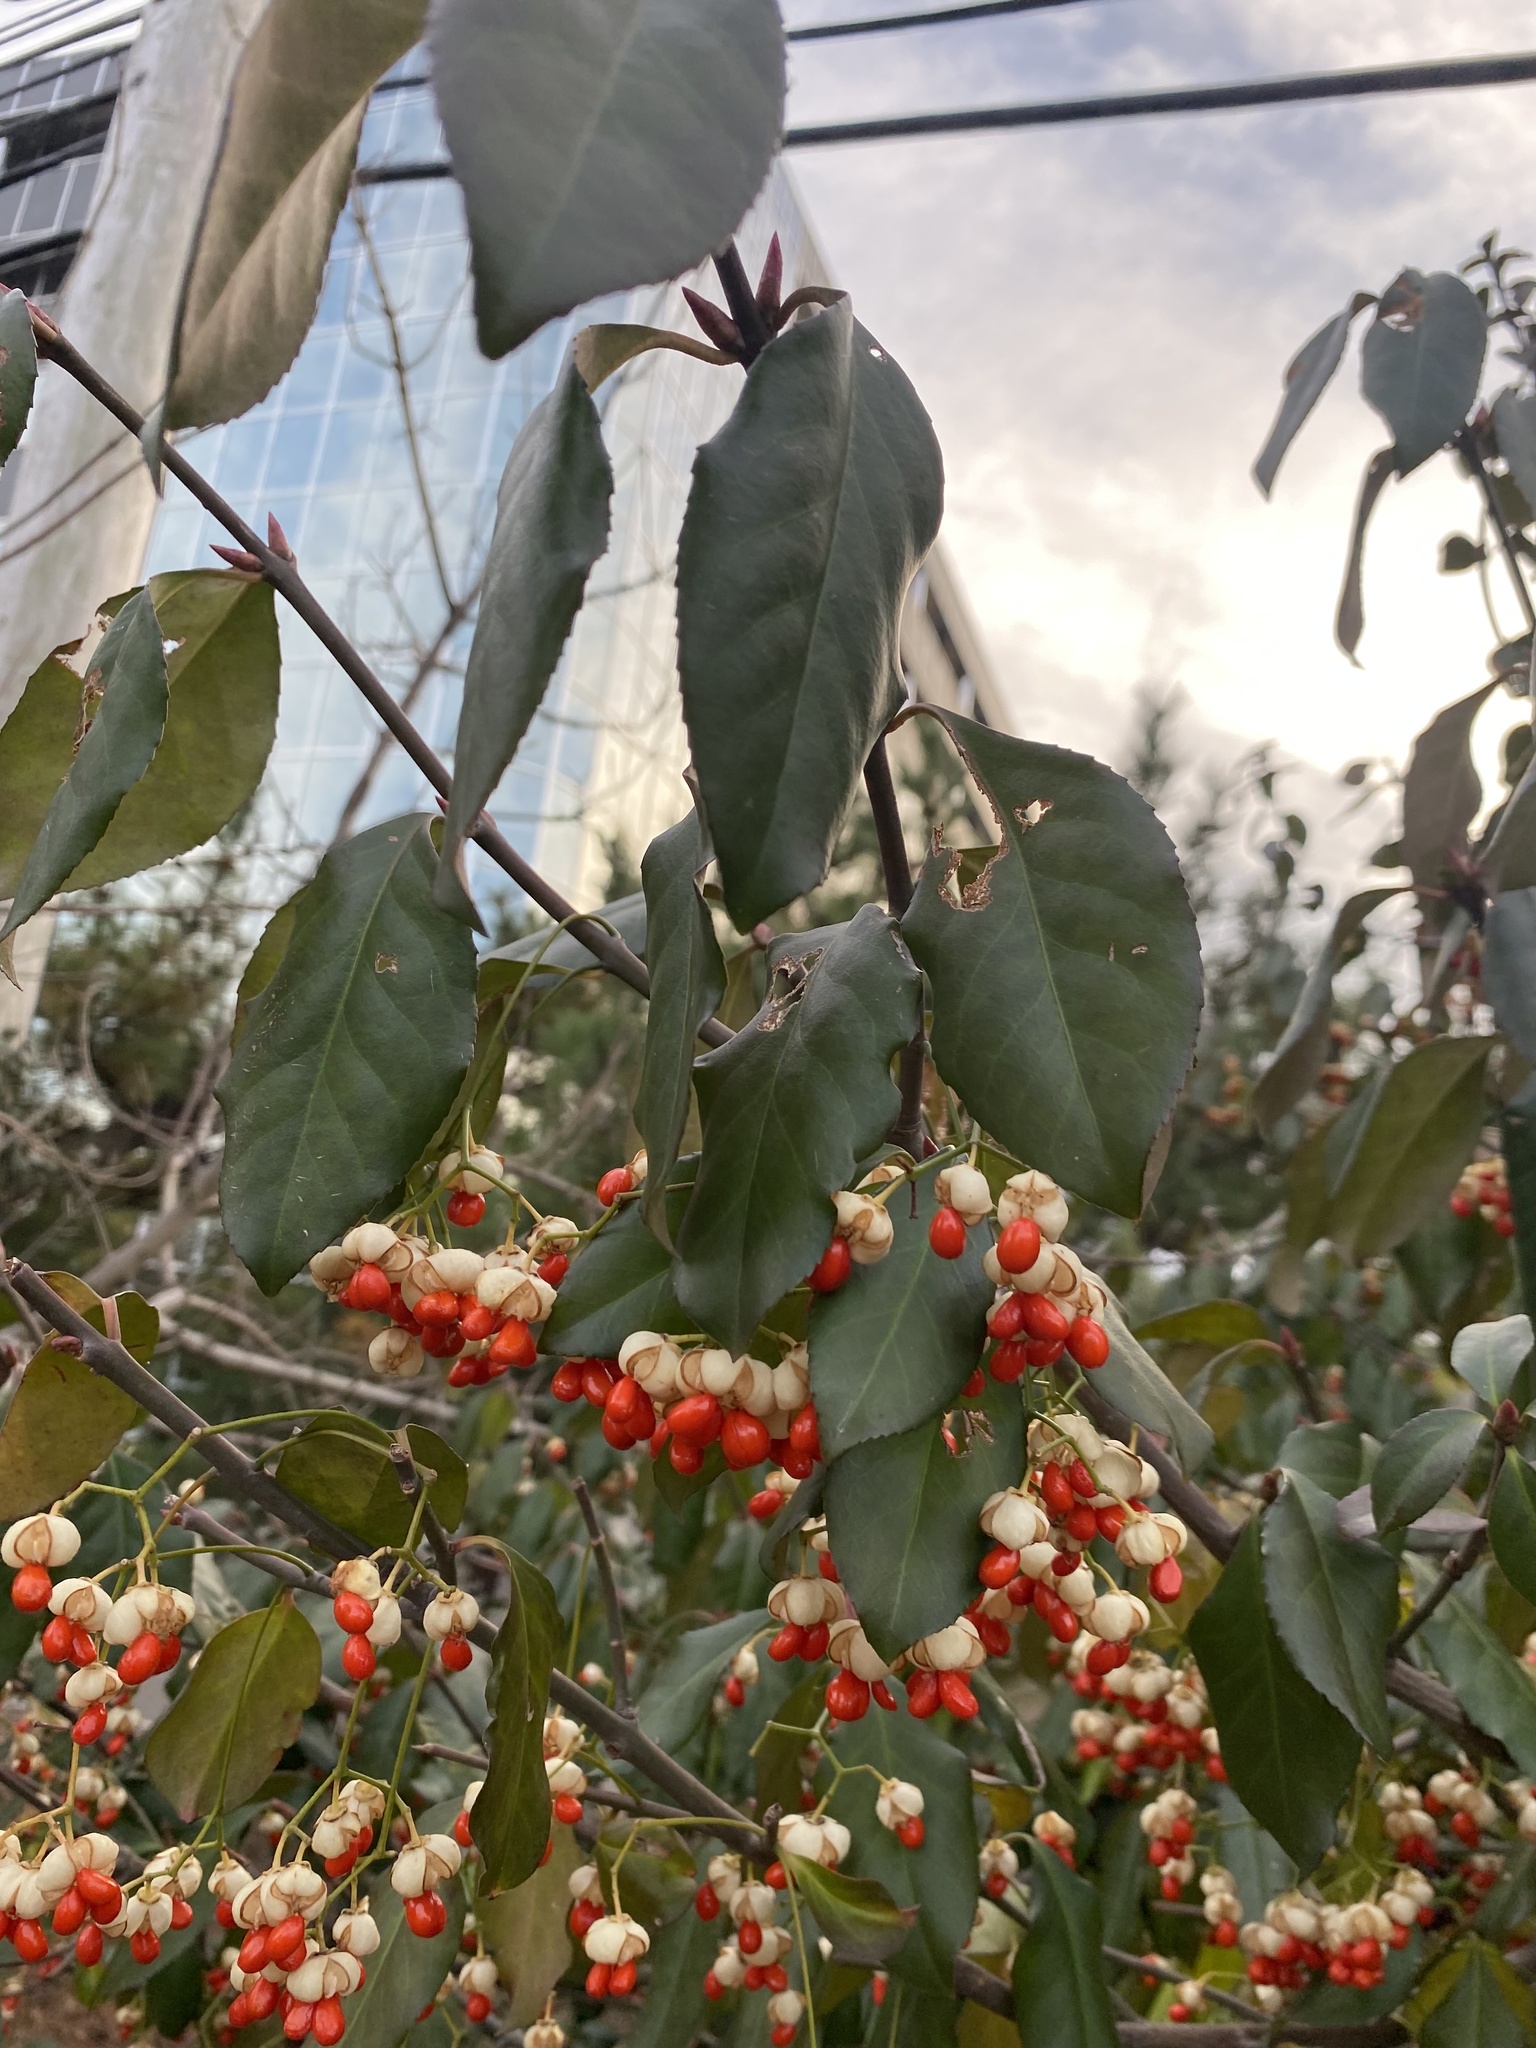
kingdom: Plantae
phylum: Tracheophyta
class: Magnoliopsida
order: Celastrales
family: Celastraceae
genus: Euonymus
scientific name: Euonymus fortunei
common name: Climbing euonymus
